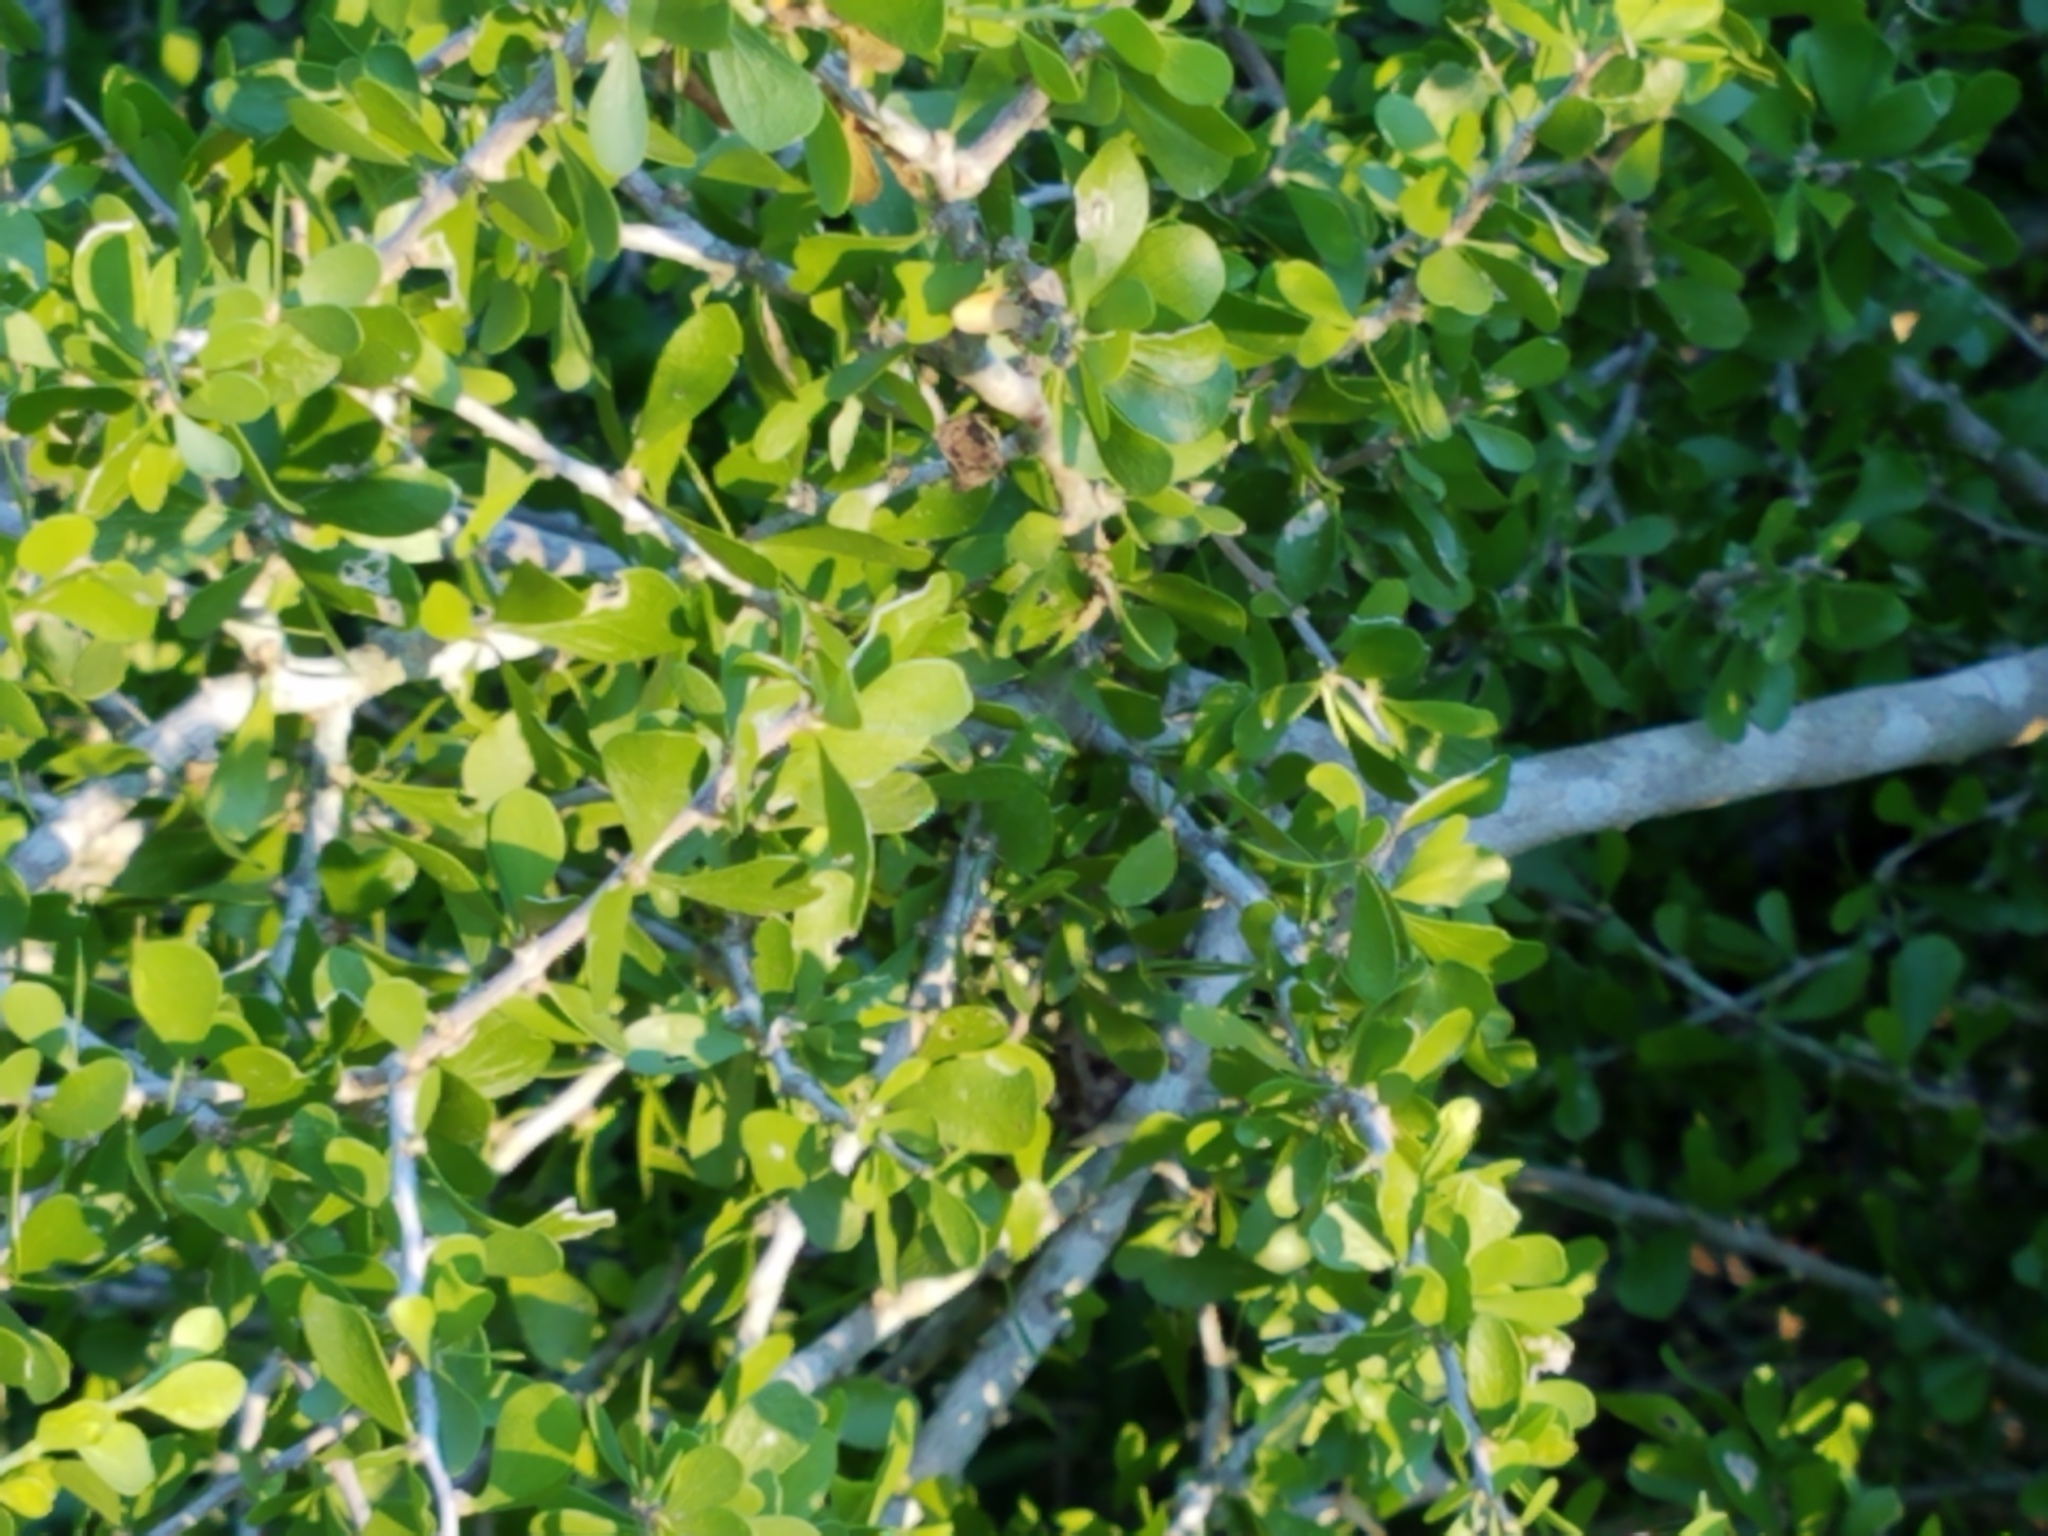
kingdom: Plantae
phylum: Tracheophyta
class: Magnoliopsida
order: Celastrales
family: Celastraceae
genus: Schaefferia
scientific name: Schaefferia cuneifolia
